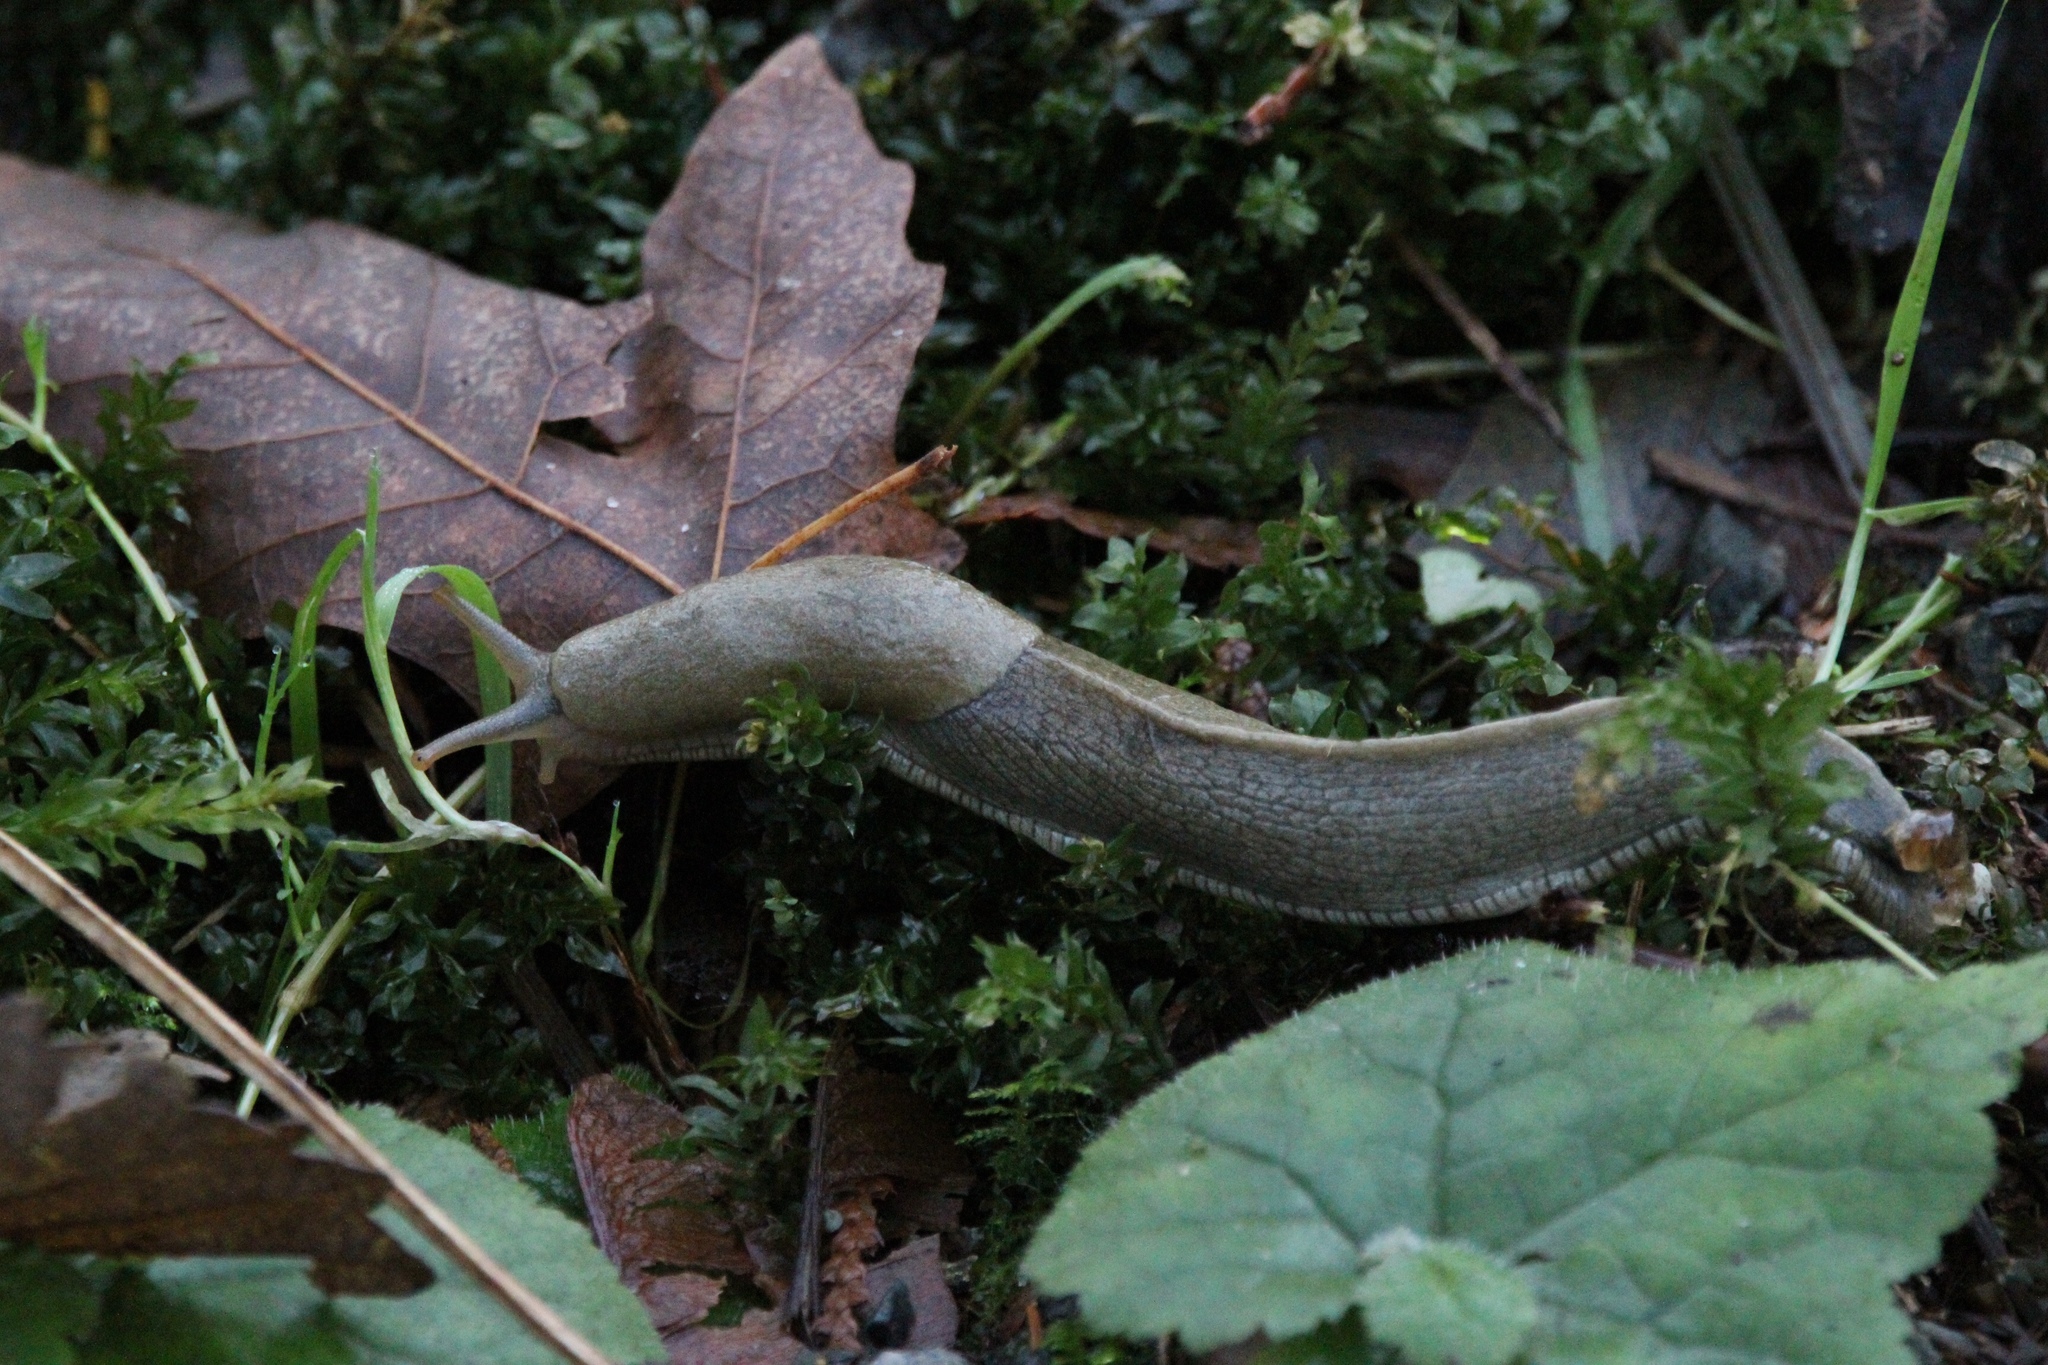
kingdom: Animalia
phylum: Mollusca
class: Gastropoda
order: Stylommatophora
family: Ariolimacidae
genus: Ariolimax
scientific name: Ariolimax columbianus
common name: Pacific banana slug
